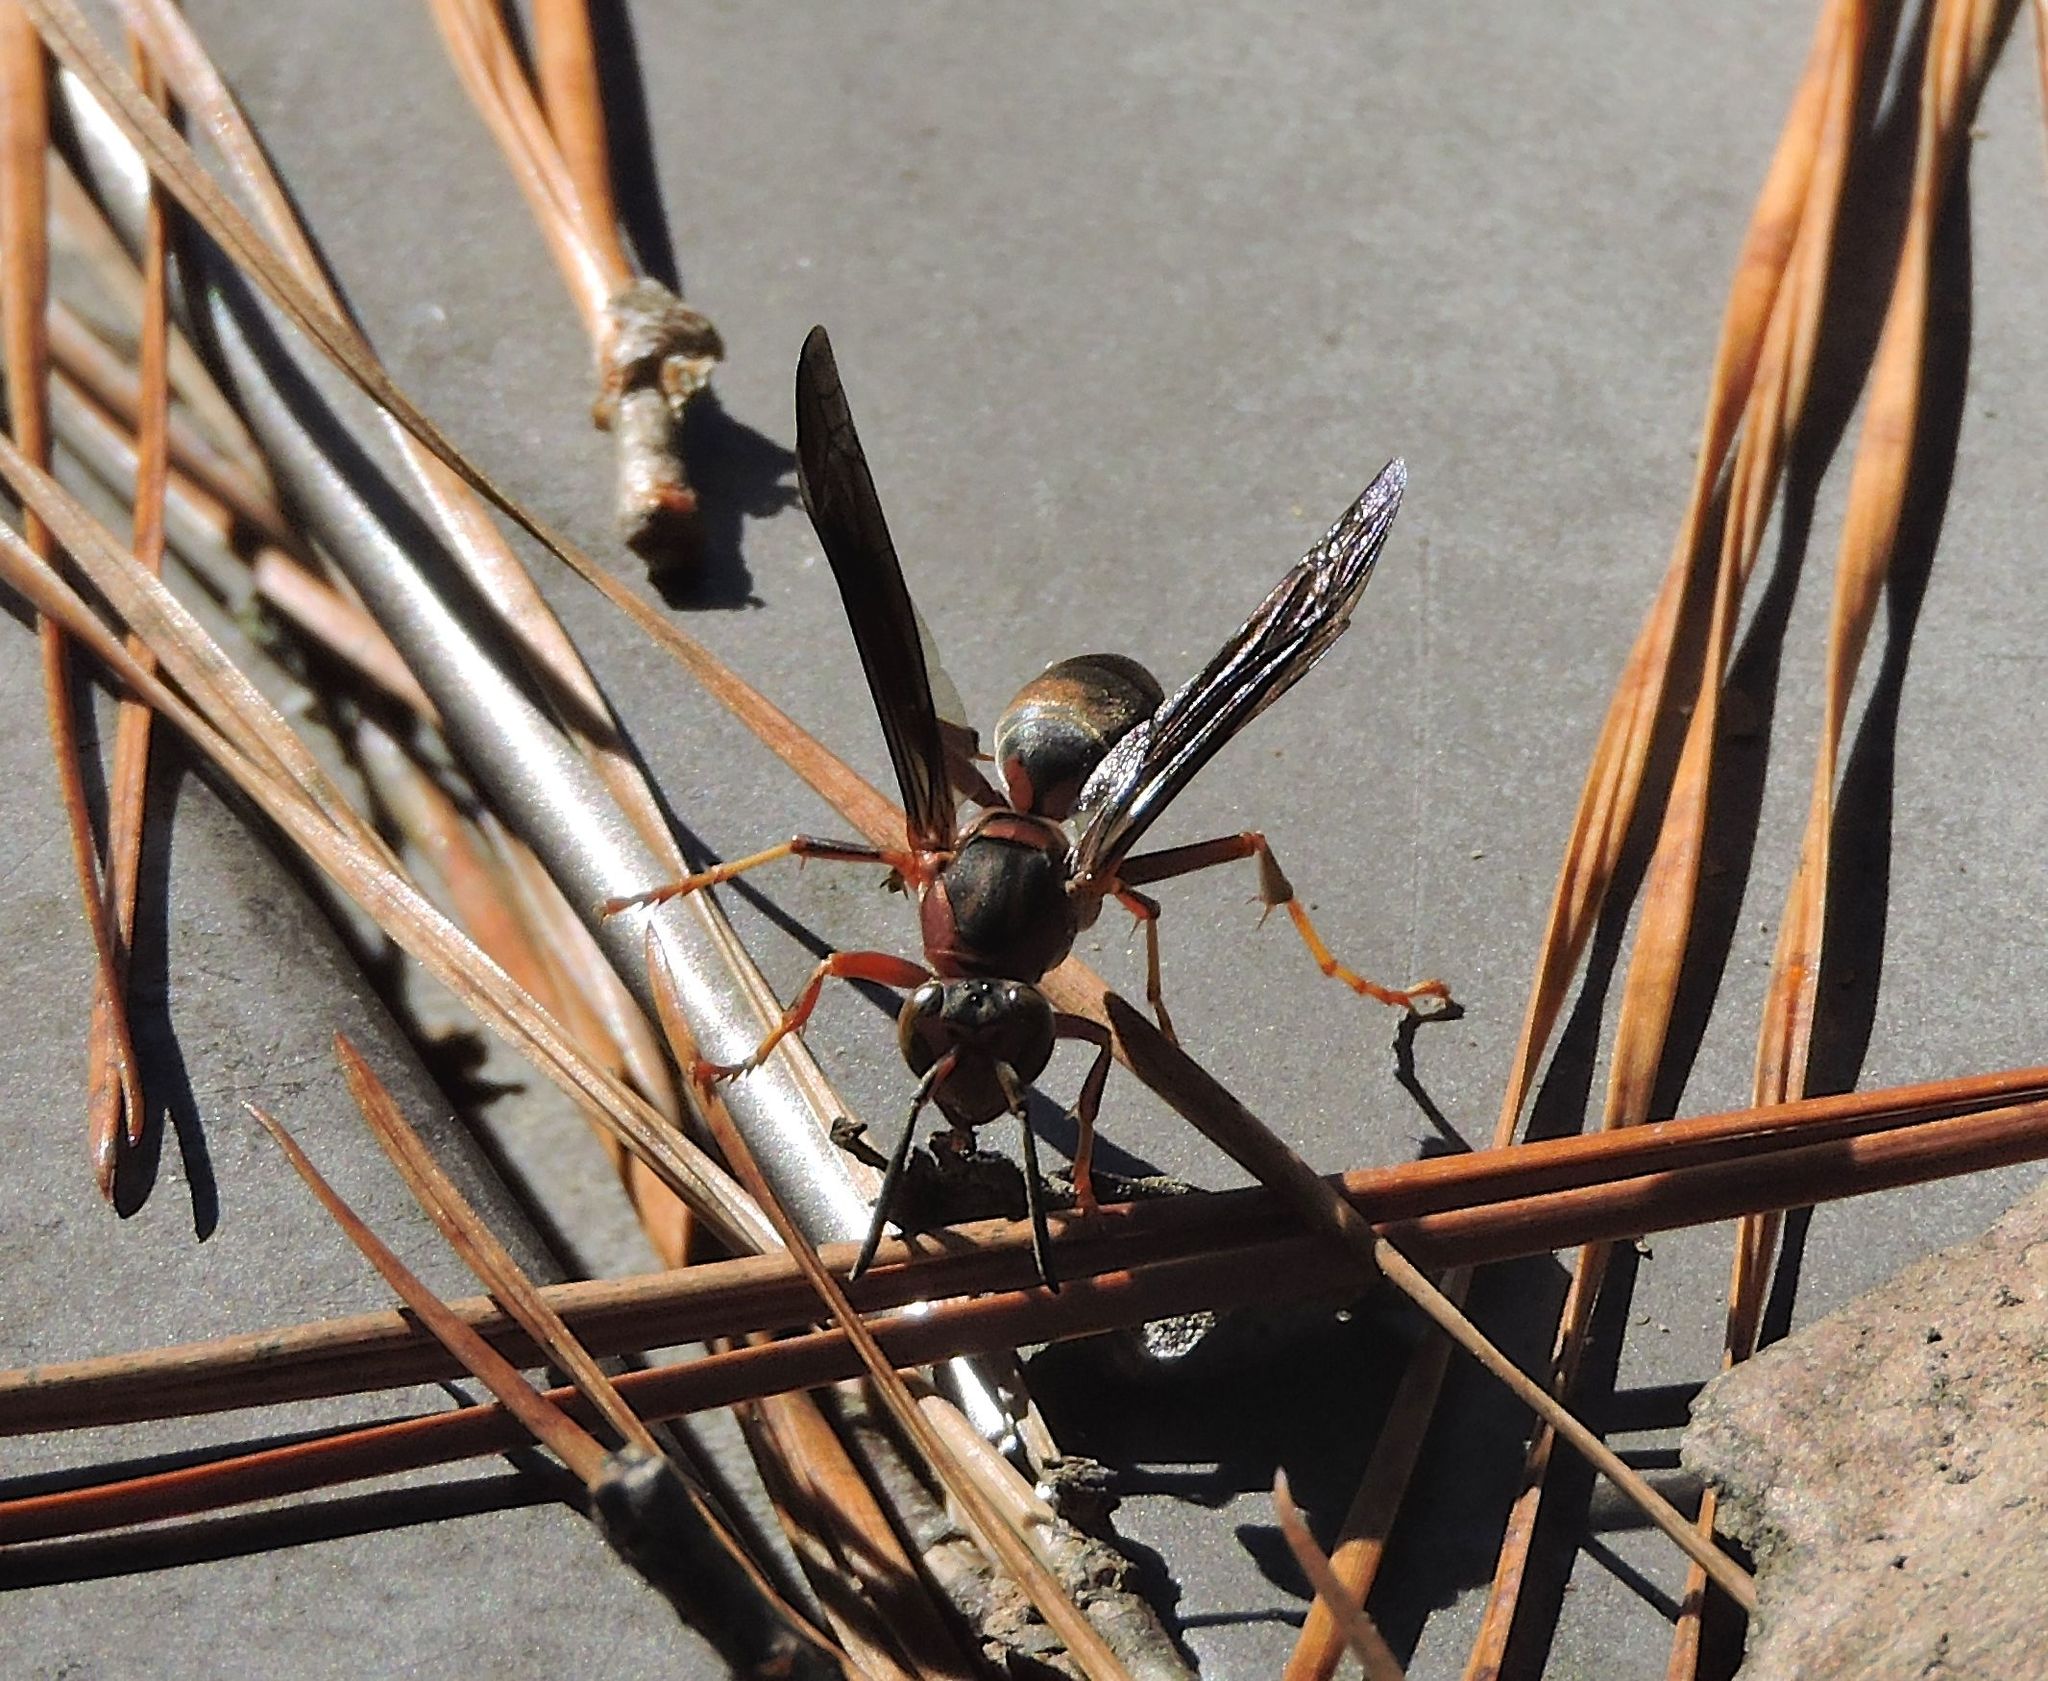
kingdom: Animalia
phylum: Arthropoda
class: Insecta
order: Hymenoptera
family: Eumenidae
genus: Polistes
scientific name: Polistes metricus
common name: Metric paper wasp
